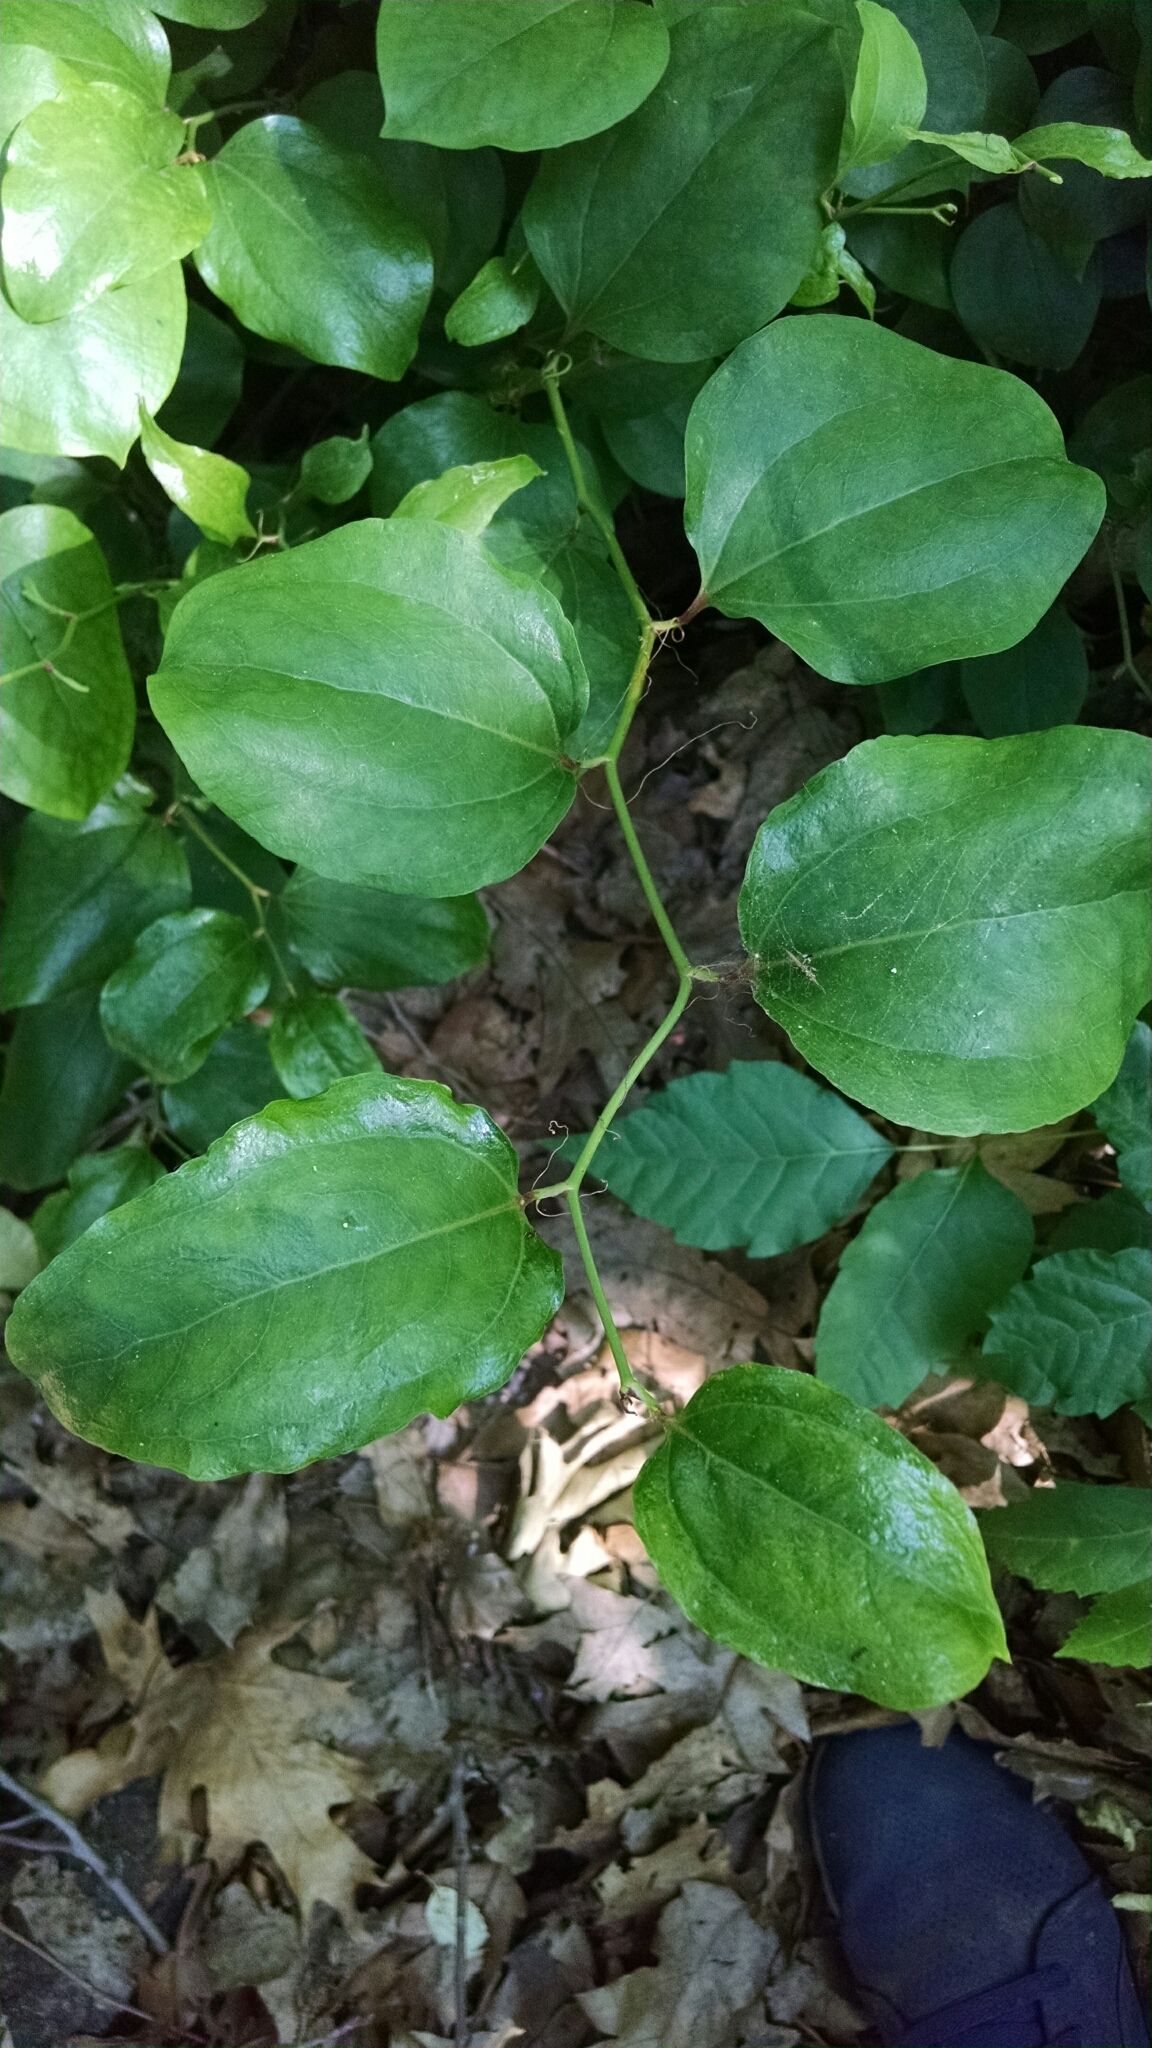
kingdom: Plantae
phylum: Tracheophyta
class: Liliopsida
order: Liliales
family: Smilacaceae
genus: Smilax
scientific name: Smilax rotundifolia
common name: Bullbriar
